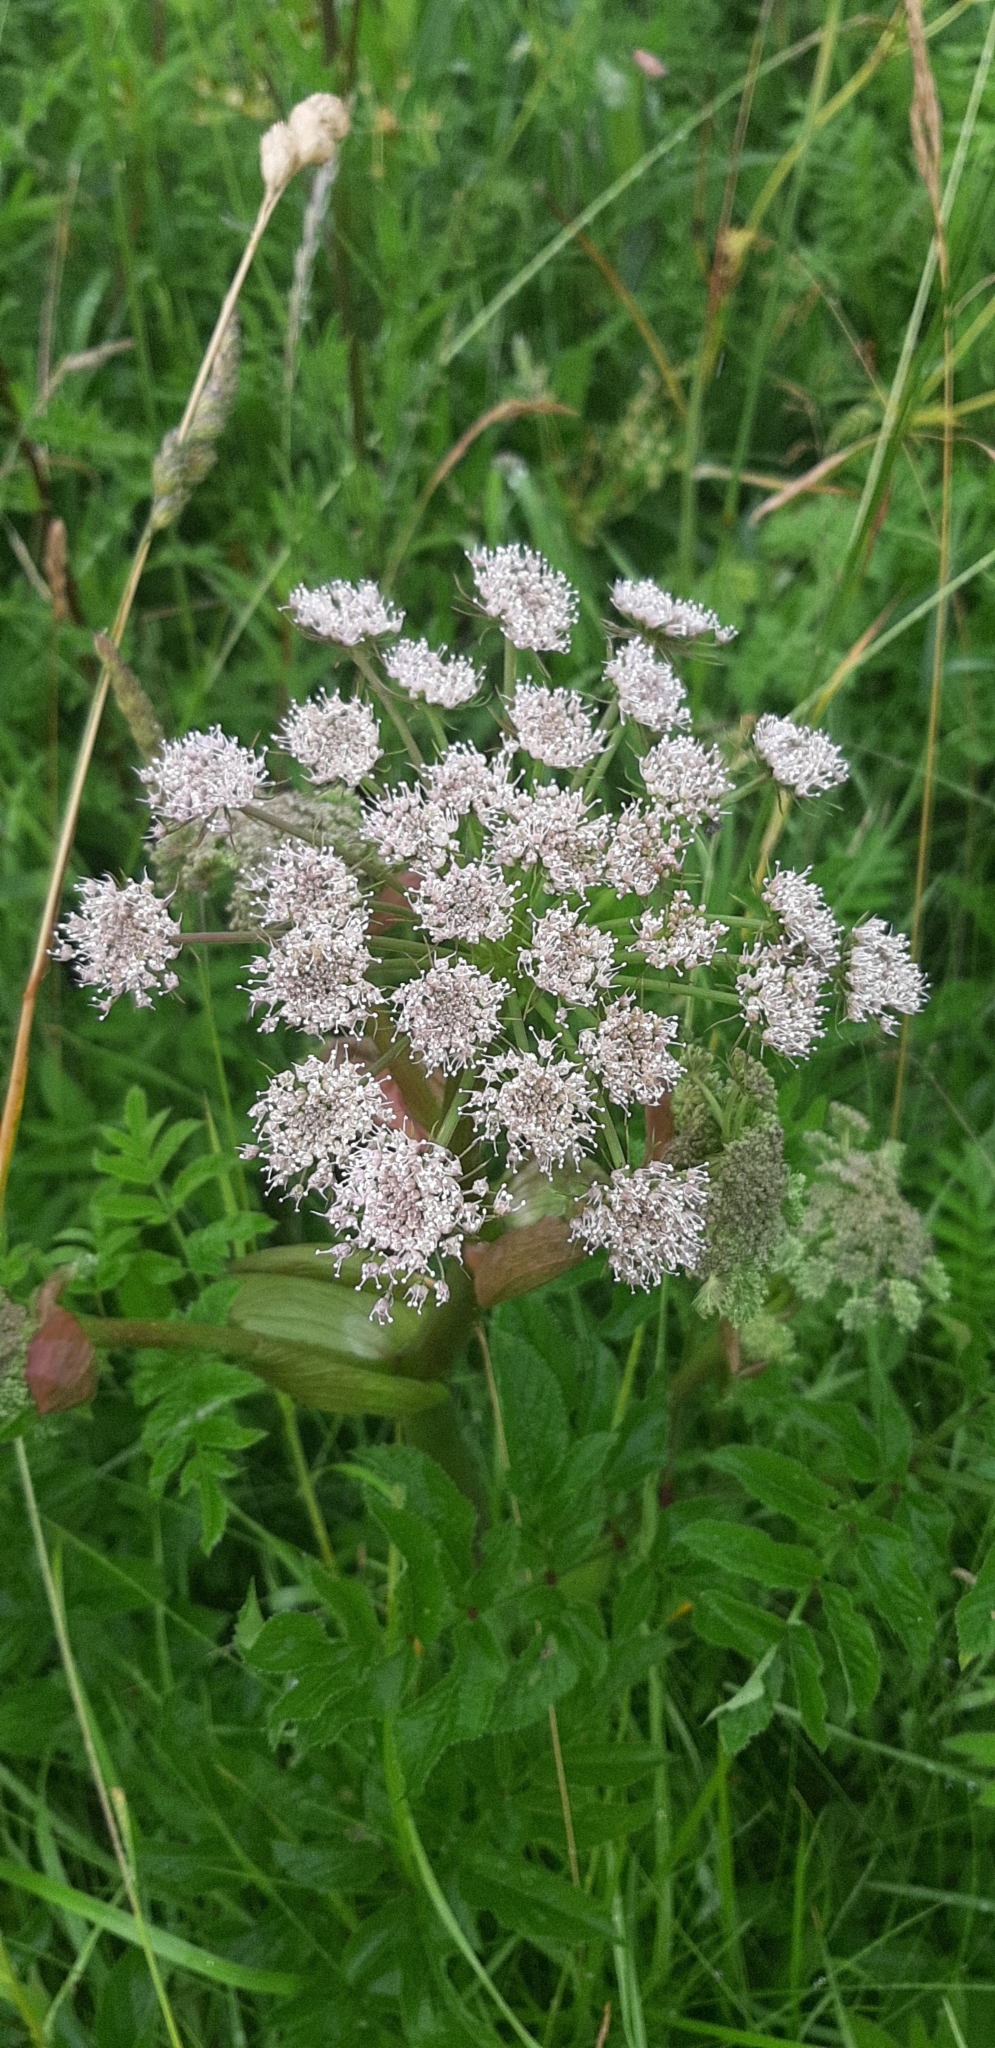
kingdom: Plantae
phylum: Tracheophyta
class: Magnoliopsida
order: Apiales
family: Apiaceae
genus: Heracleum
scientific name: Heracleum sphondylium
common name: Hogweed
